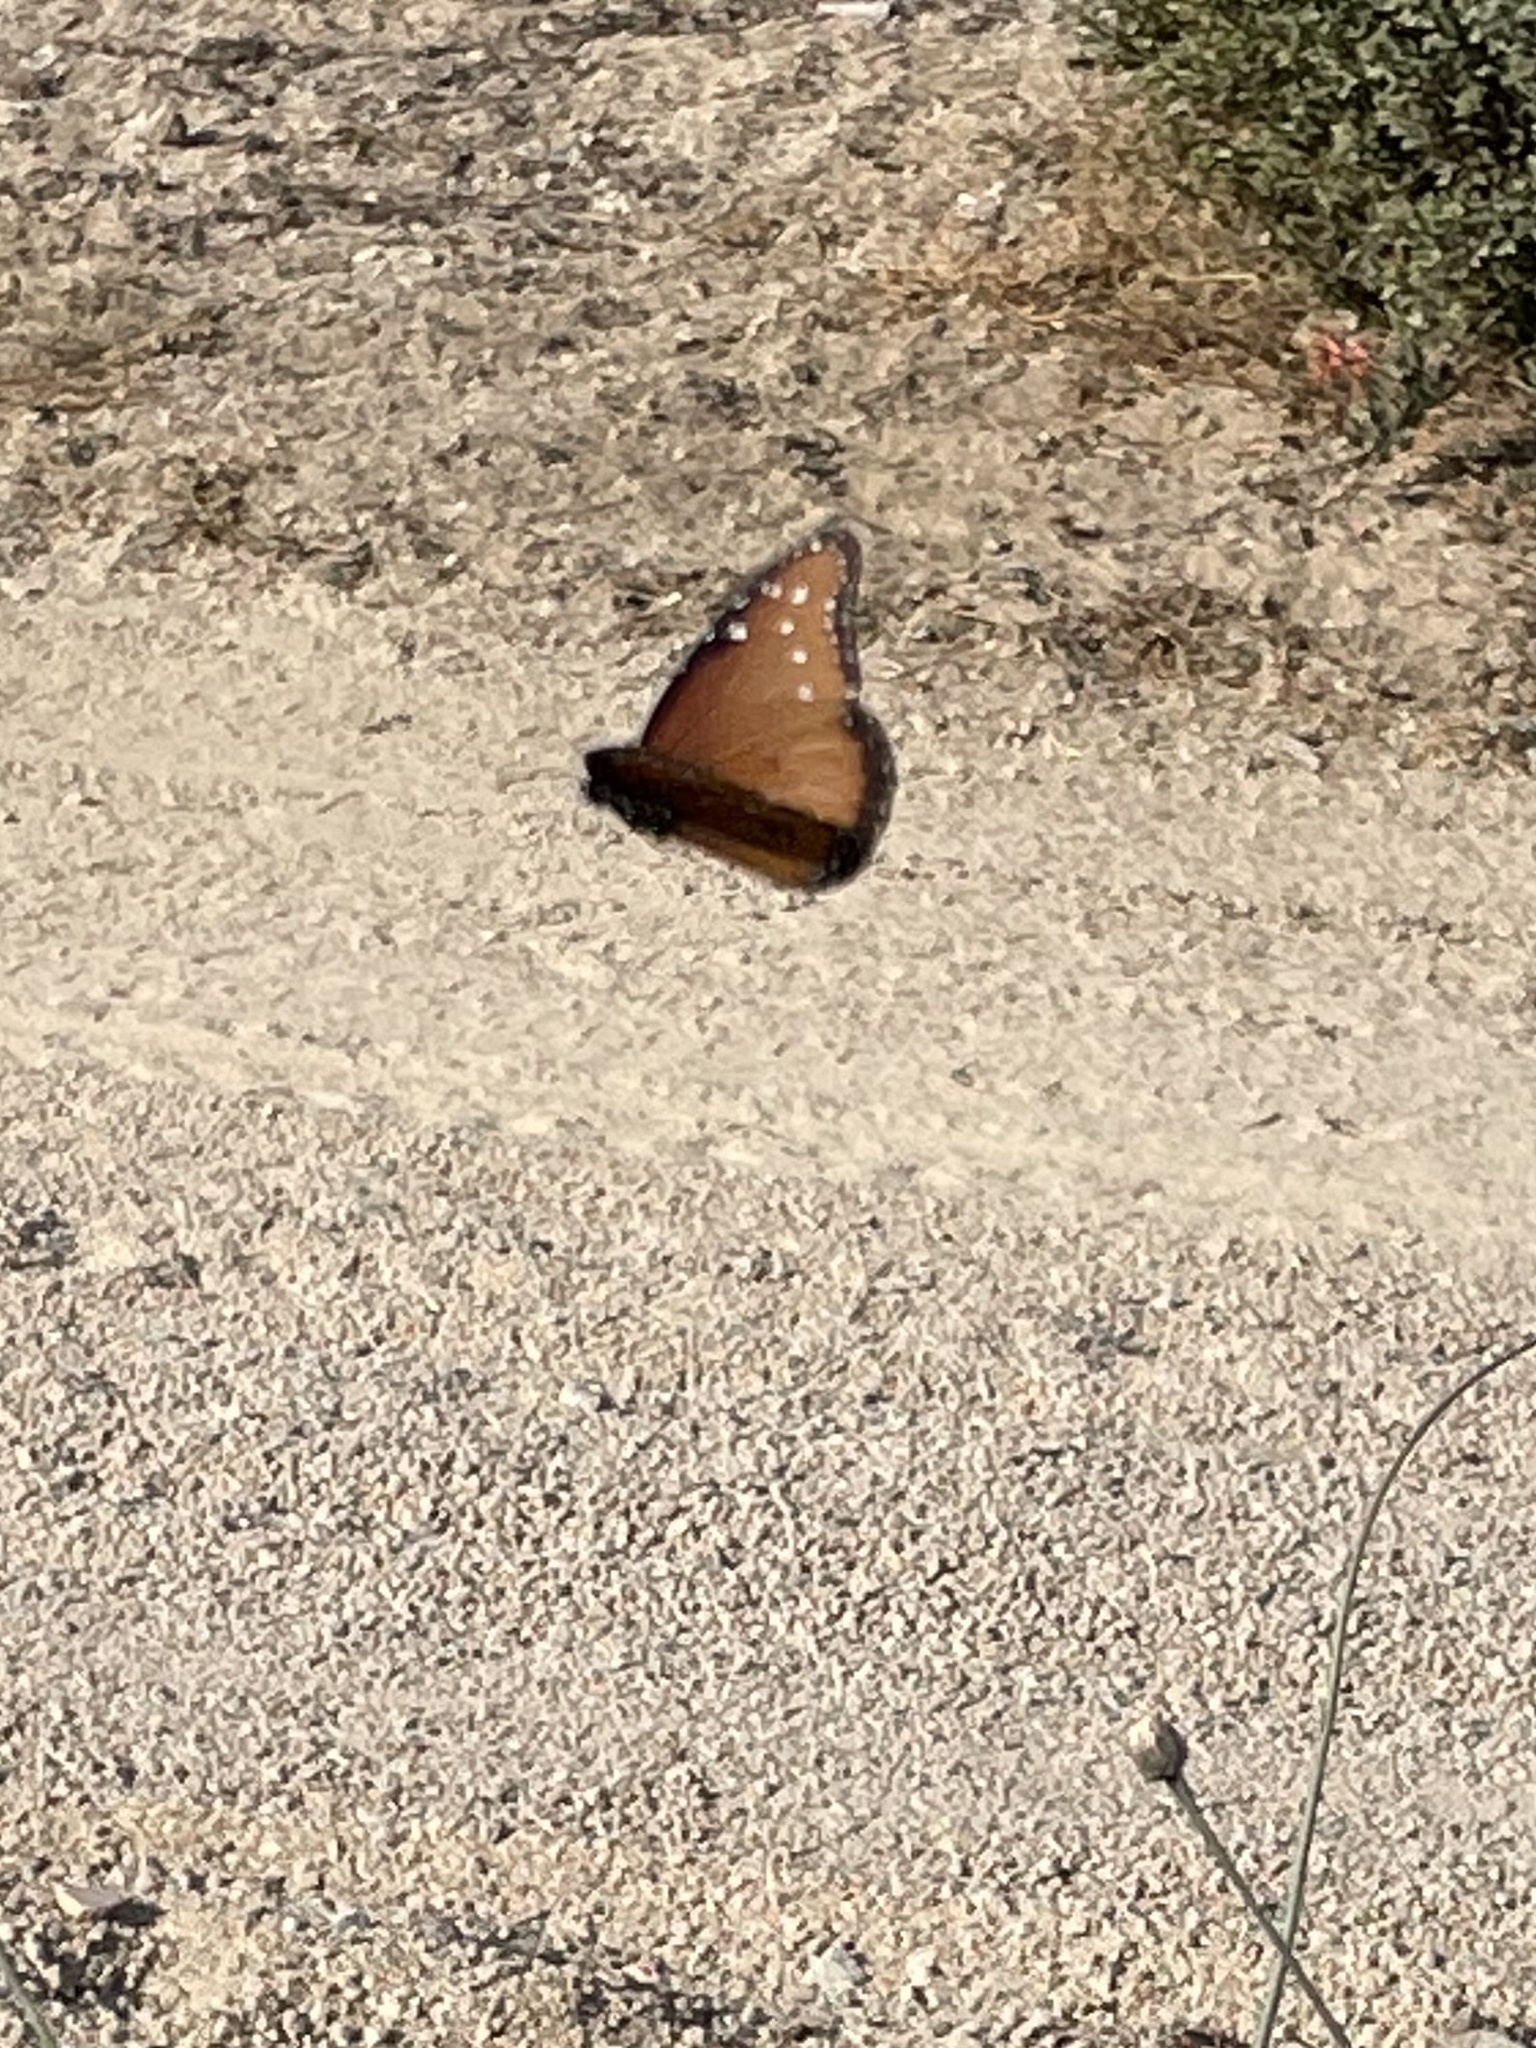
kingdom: Animalia
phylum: Arthropoda
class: Insecta
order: Lepidoptera
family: Nymphalidae
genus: Danaus
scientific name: Danaus gilippus
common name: Queen
